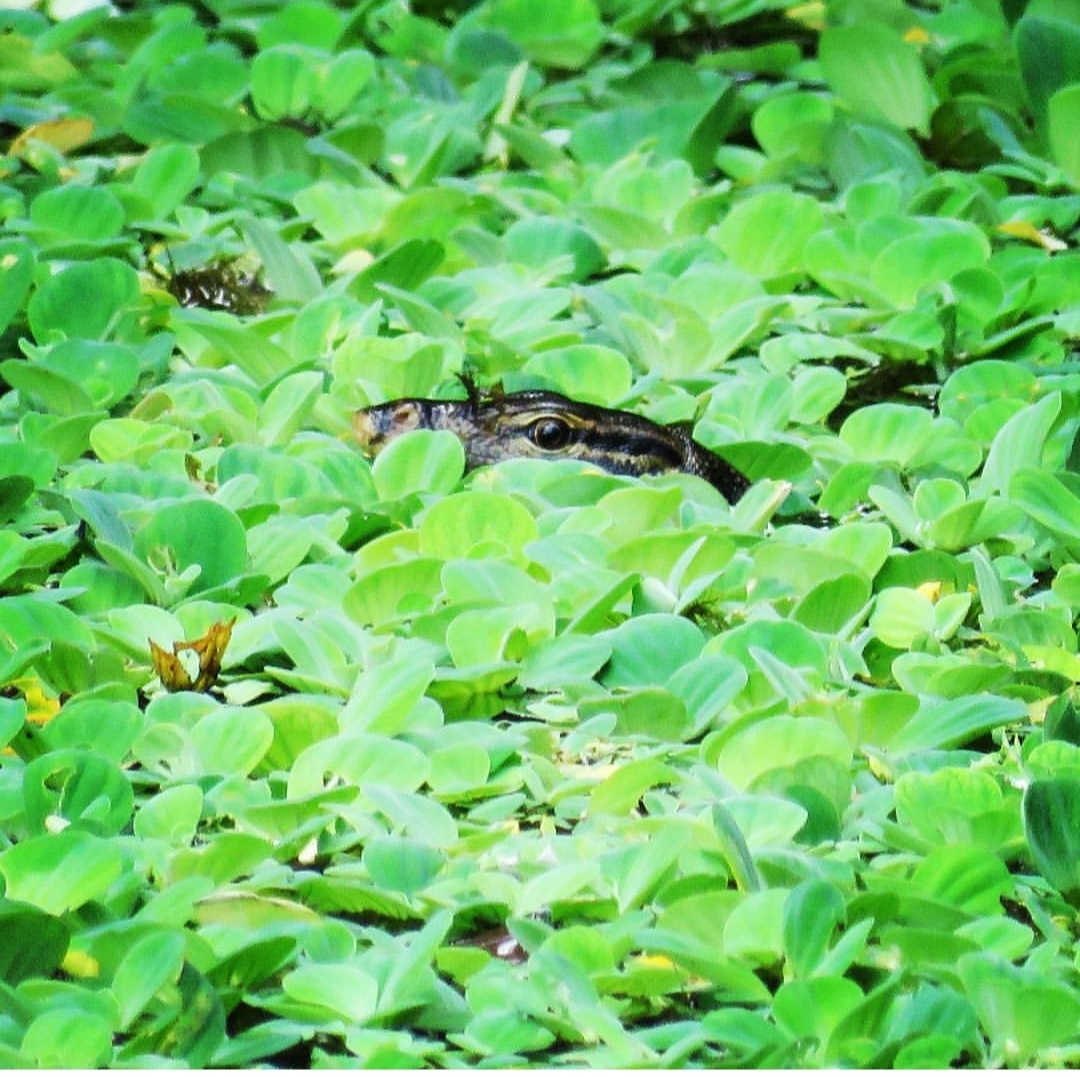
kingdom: Animalia
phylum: Chordata
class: Squamata
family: Varanidae
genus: Varanus
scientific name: Varanus salvator
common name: Common water monitor
